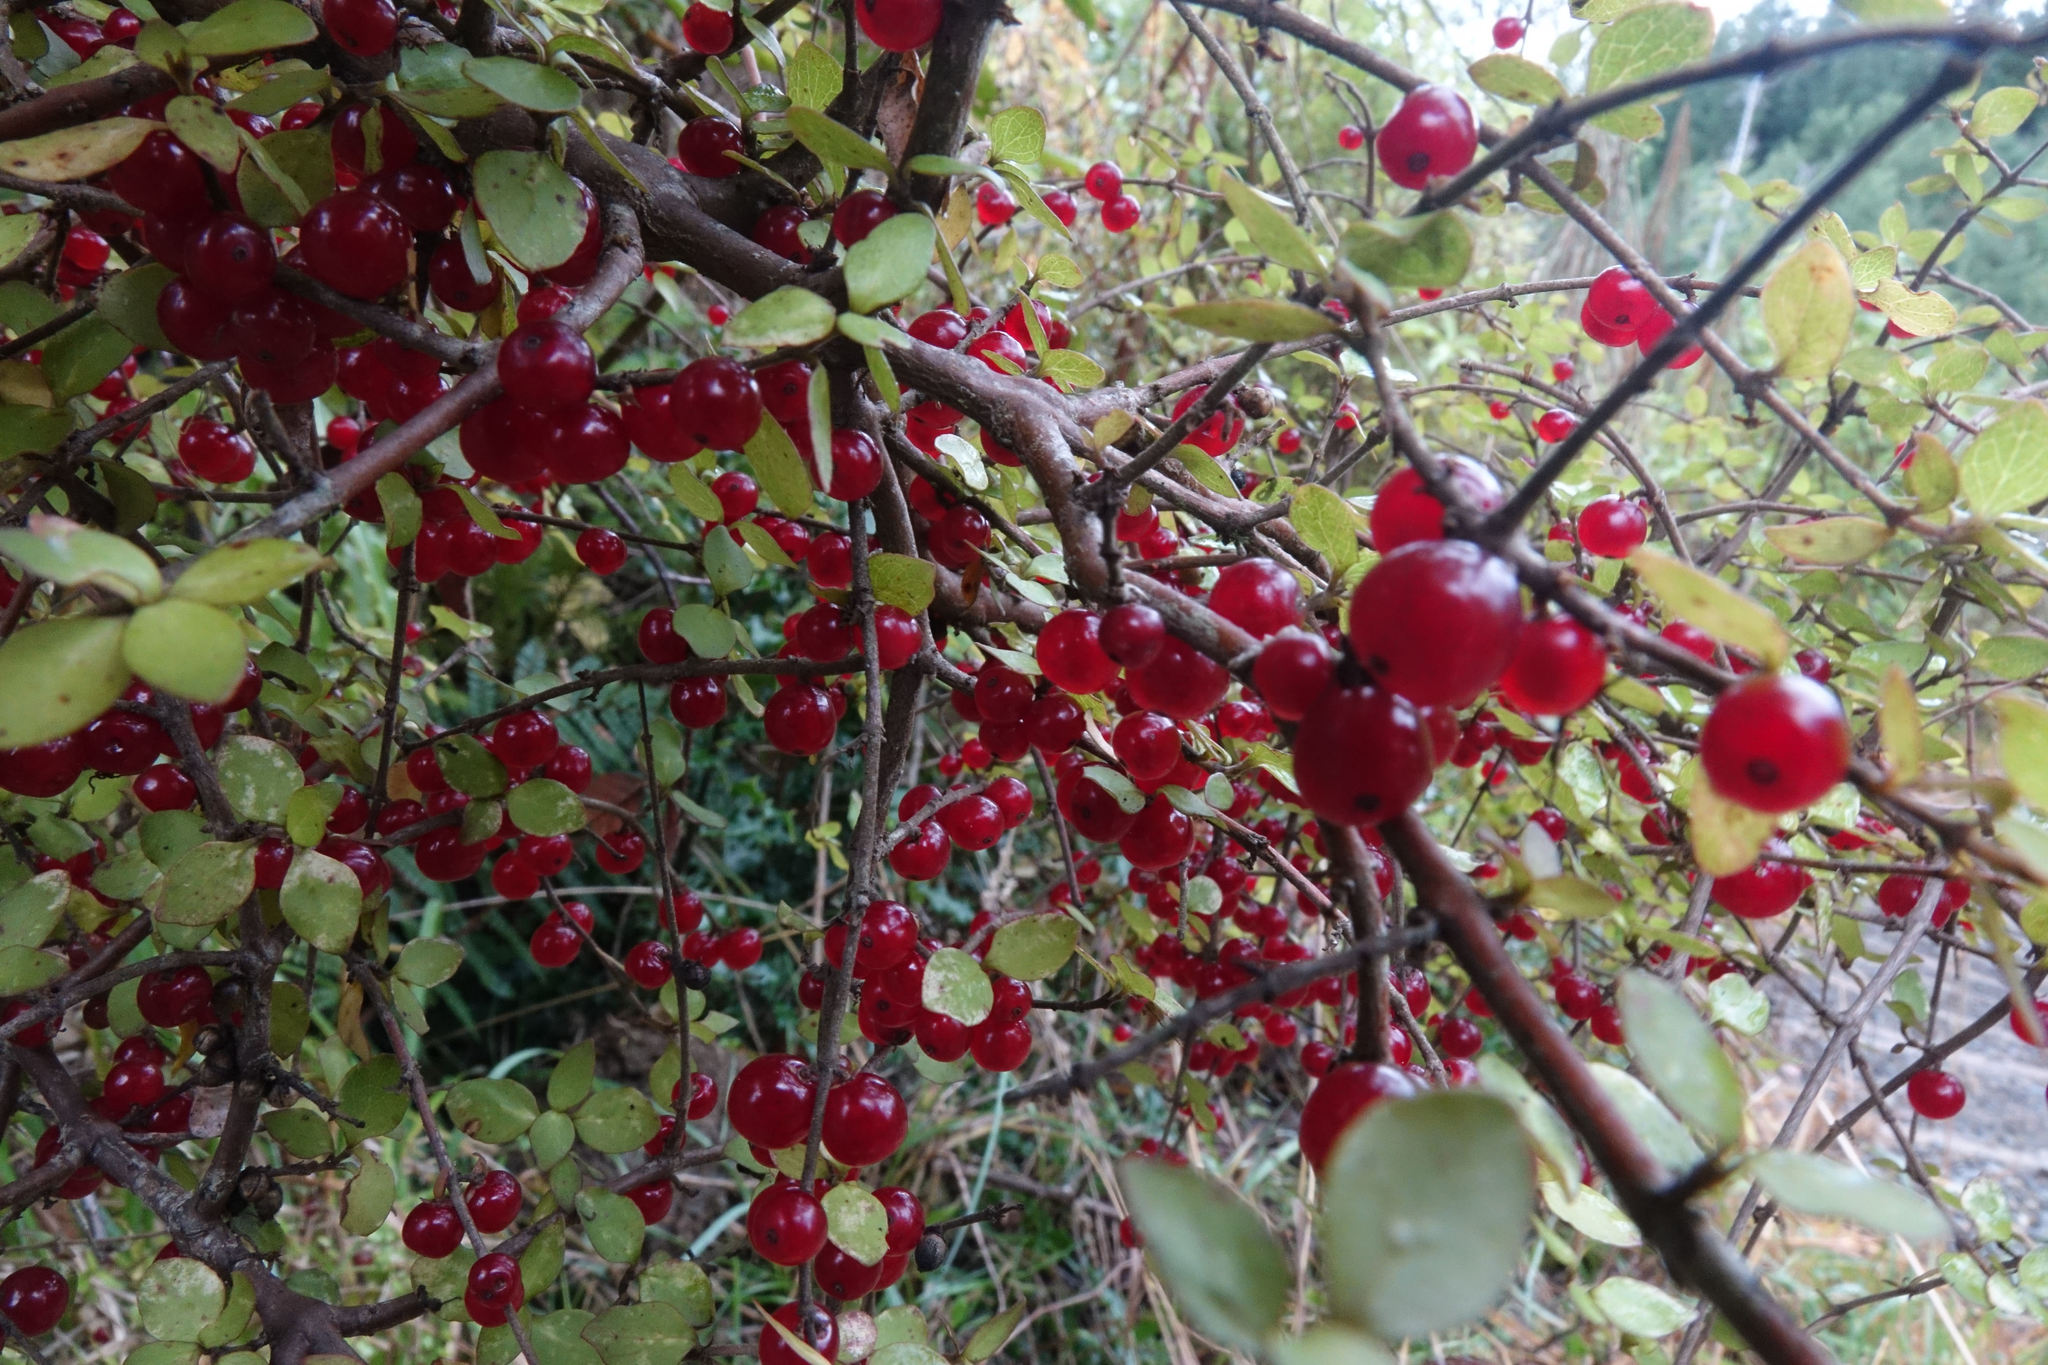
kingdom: Plantae
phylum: Tracheophyta
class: Magnoliopsida
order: Gentianales
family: Rubiaceae
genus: Coprosma
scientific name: Coprosma rhamnoides
